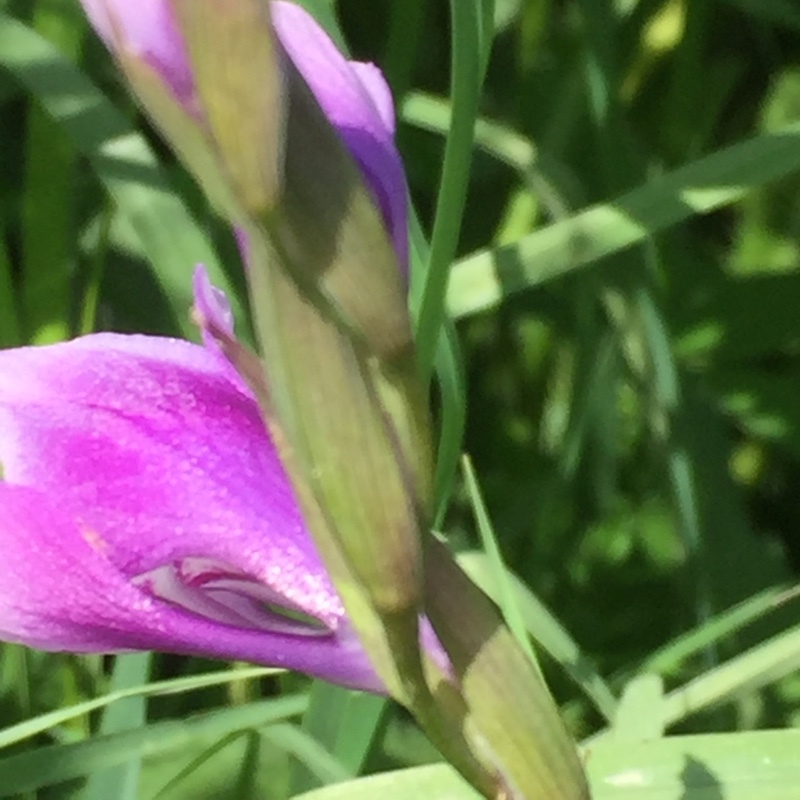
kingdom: Plantae
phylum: Tracheophyta
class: Liliopsida
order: Asparagales
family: Iridaceae
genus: Gladiolus
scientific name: Gladiolus italicus
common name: Field gladiolus
